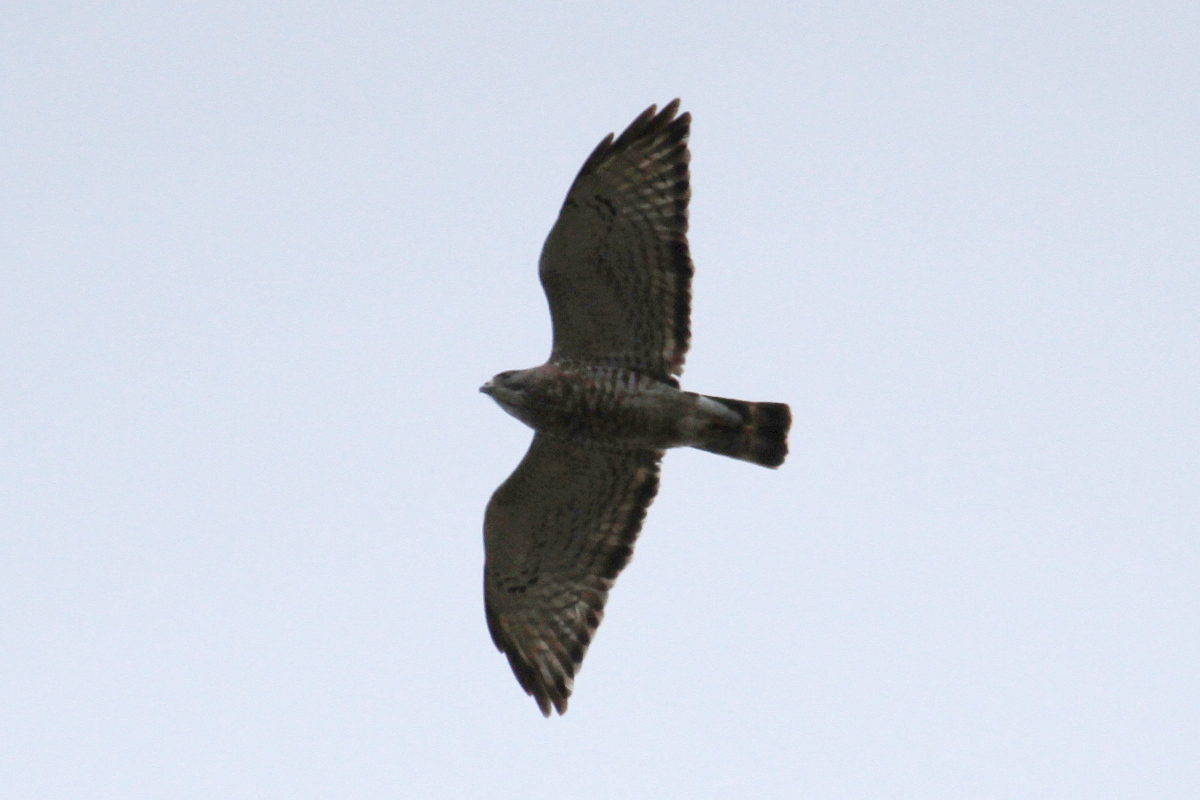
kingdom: Animalia
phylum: Chordata
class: Aves
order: Accipitriformes
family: Accipitridae
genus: Buteo
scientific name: Buteo platypterus
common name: Broad-winged hawk
